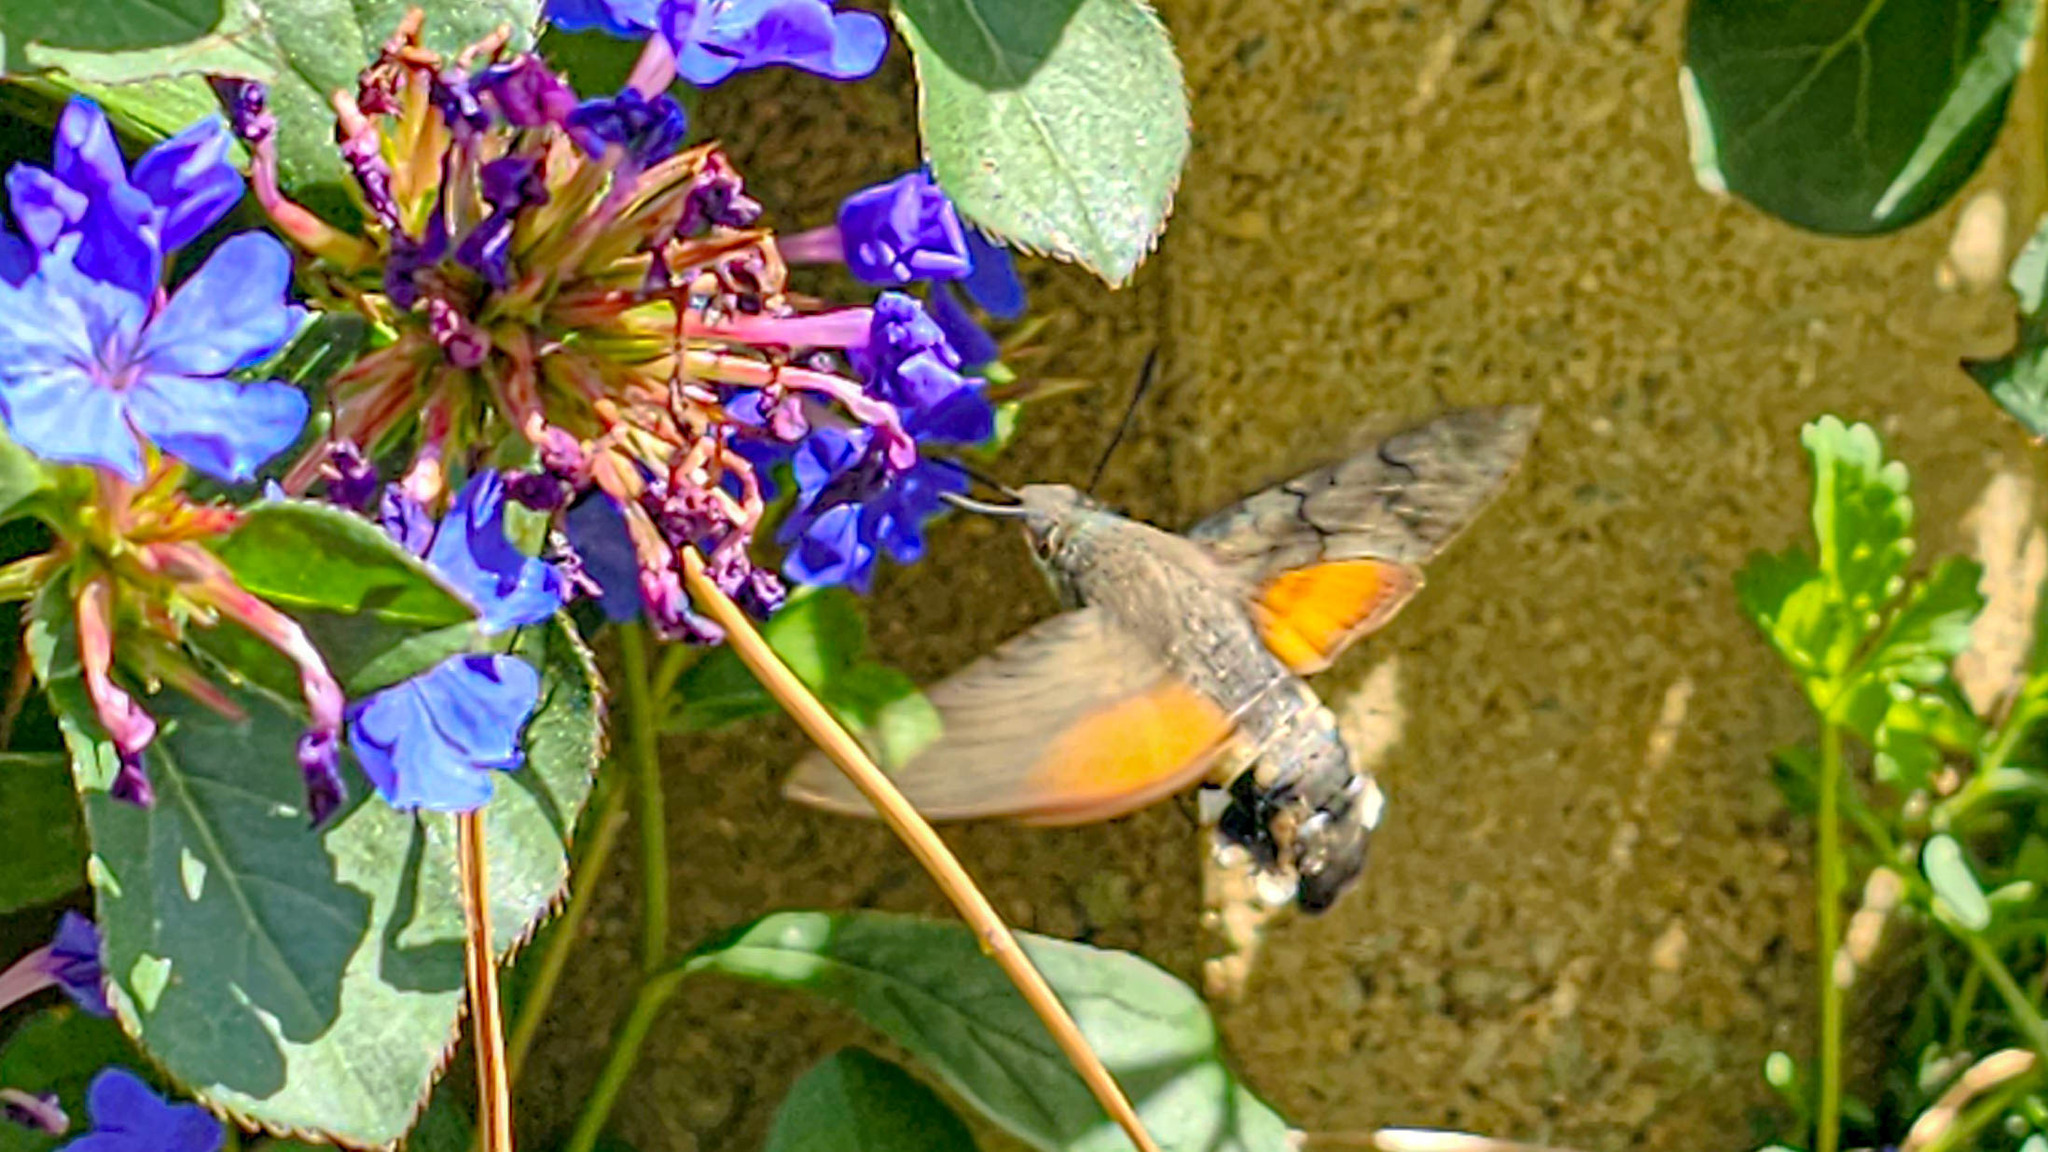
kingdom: Animalia
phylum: Arthropoda
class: Insecta
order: Lepidoptera
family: Sphingidae
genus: Macroglossum
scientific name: Macroglossum stellatarum
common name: Humming-bird hawk-moth
